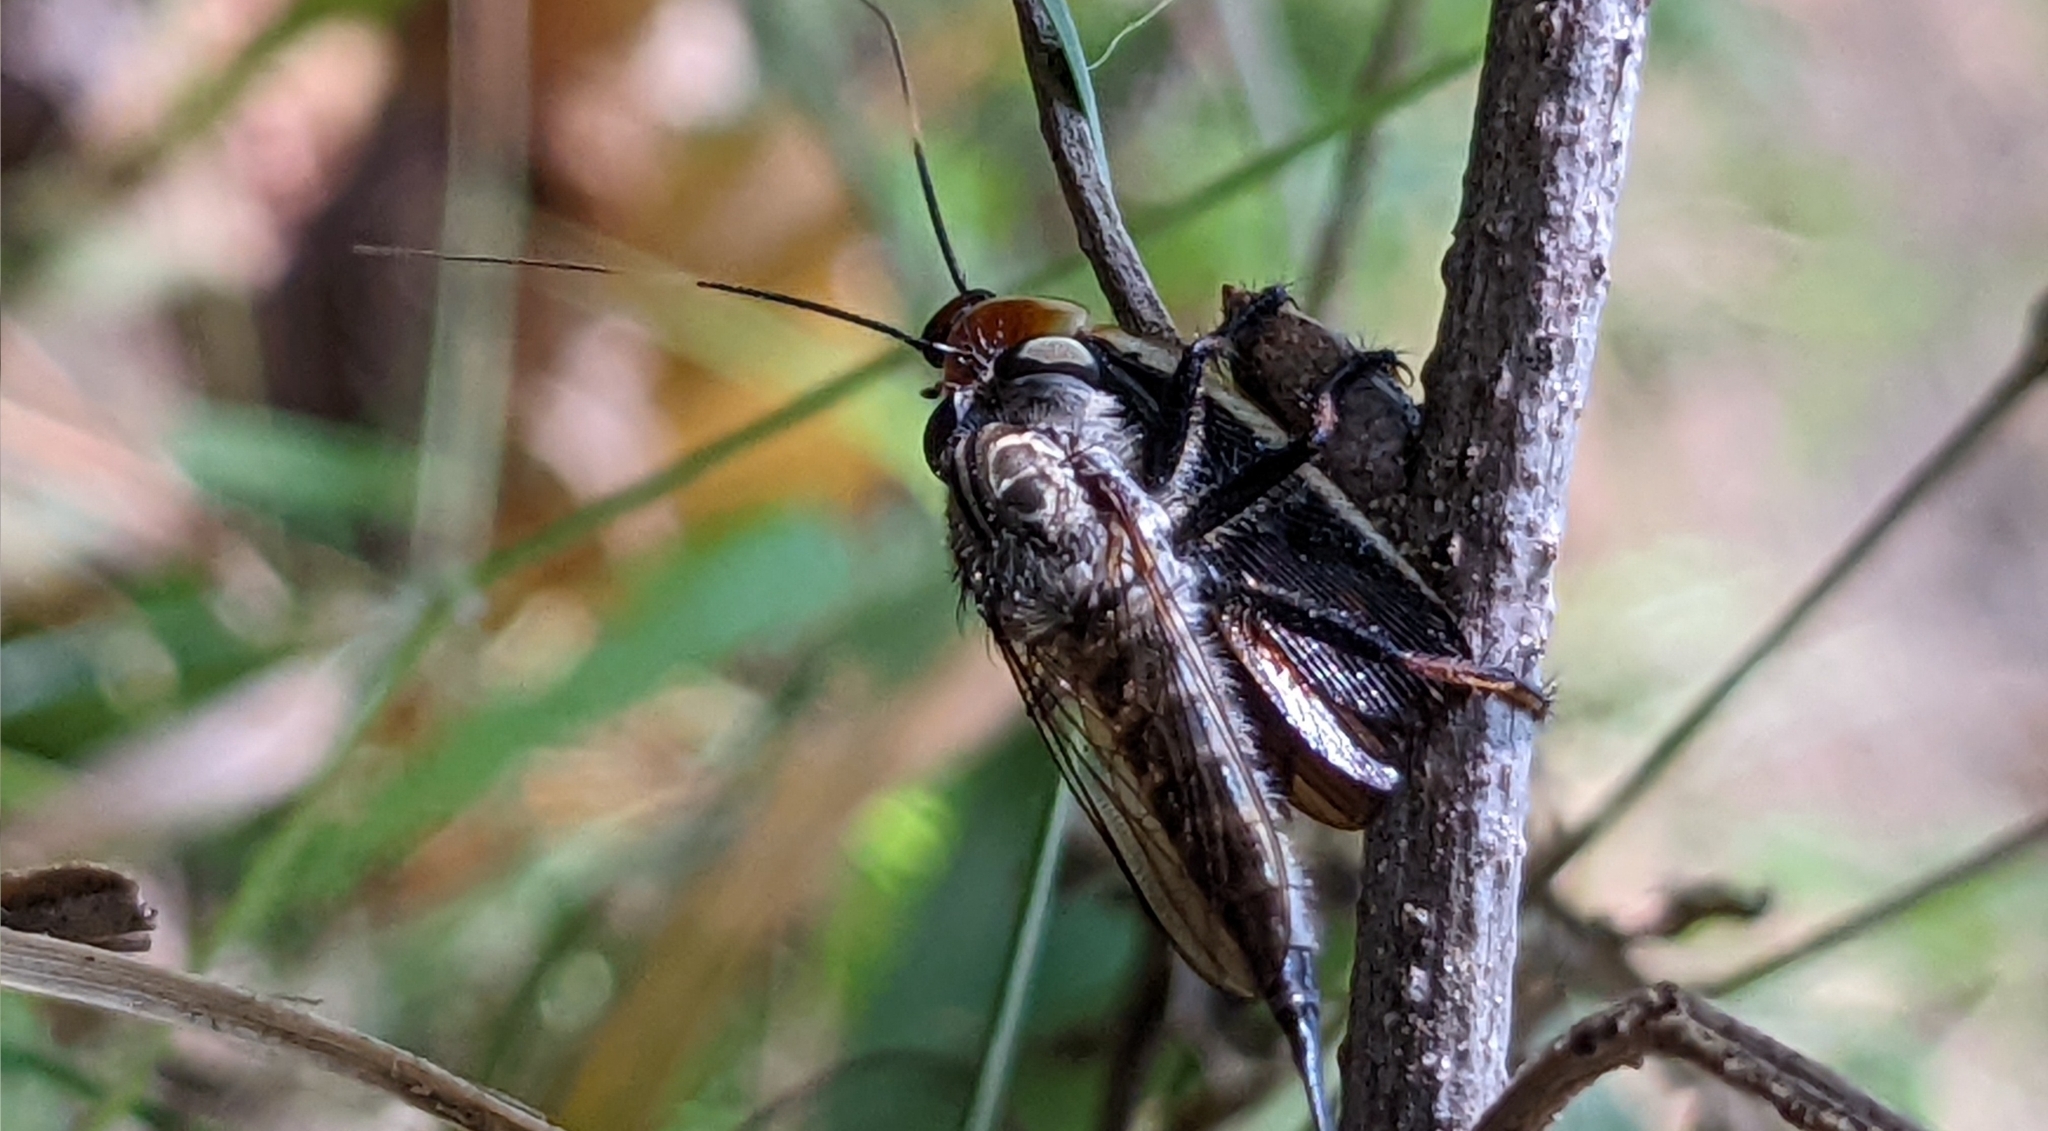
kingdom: Animalia
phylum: Arthropoda
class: Insecta
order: Blattodea
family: Ectobiidae
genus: Pseudomops
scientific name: Pseudomops septentrionalis
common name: Pale-bordered field cockroach
